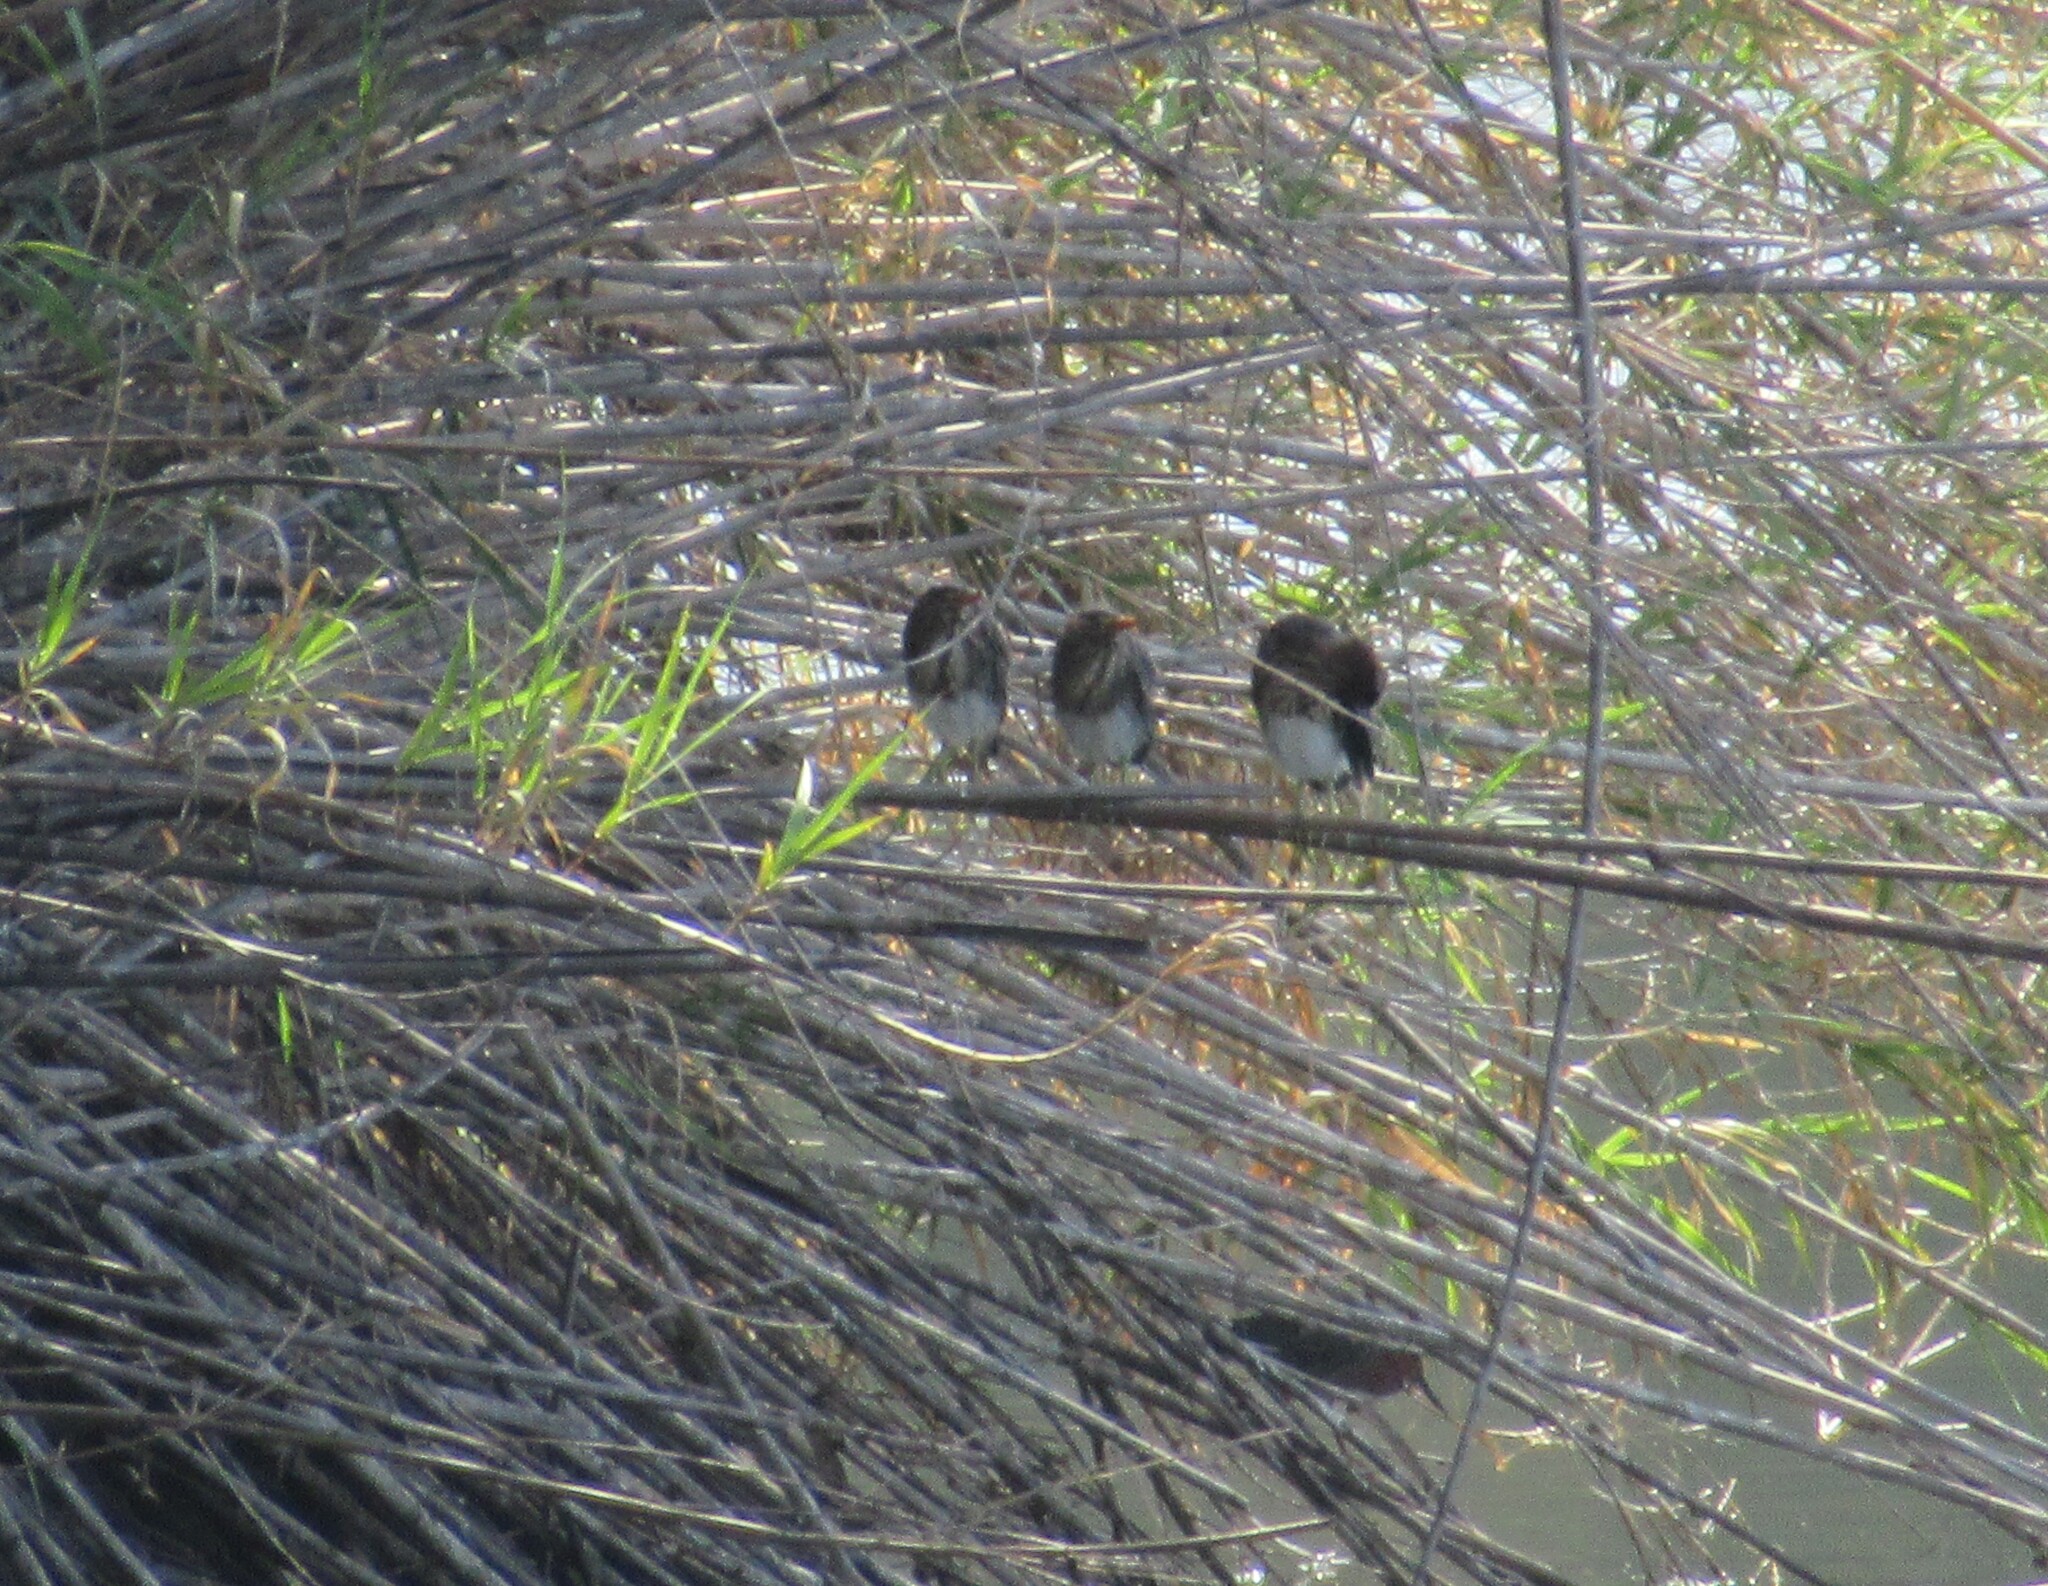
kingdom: Animalia
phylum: Chordata
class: Aves
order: Pelecaniformes
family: Ardeidae
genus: Butorides
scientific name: Butorides virescens
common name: Green heron
